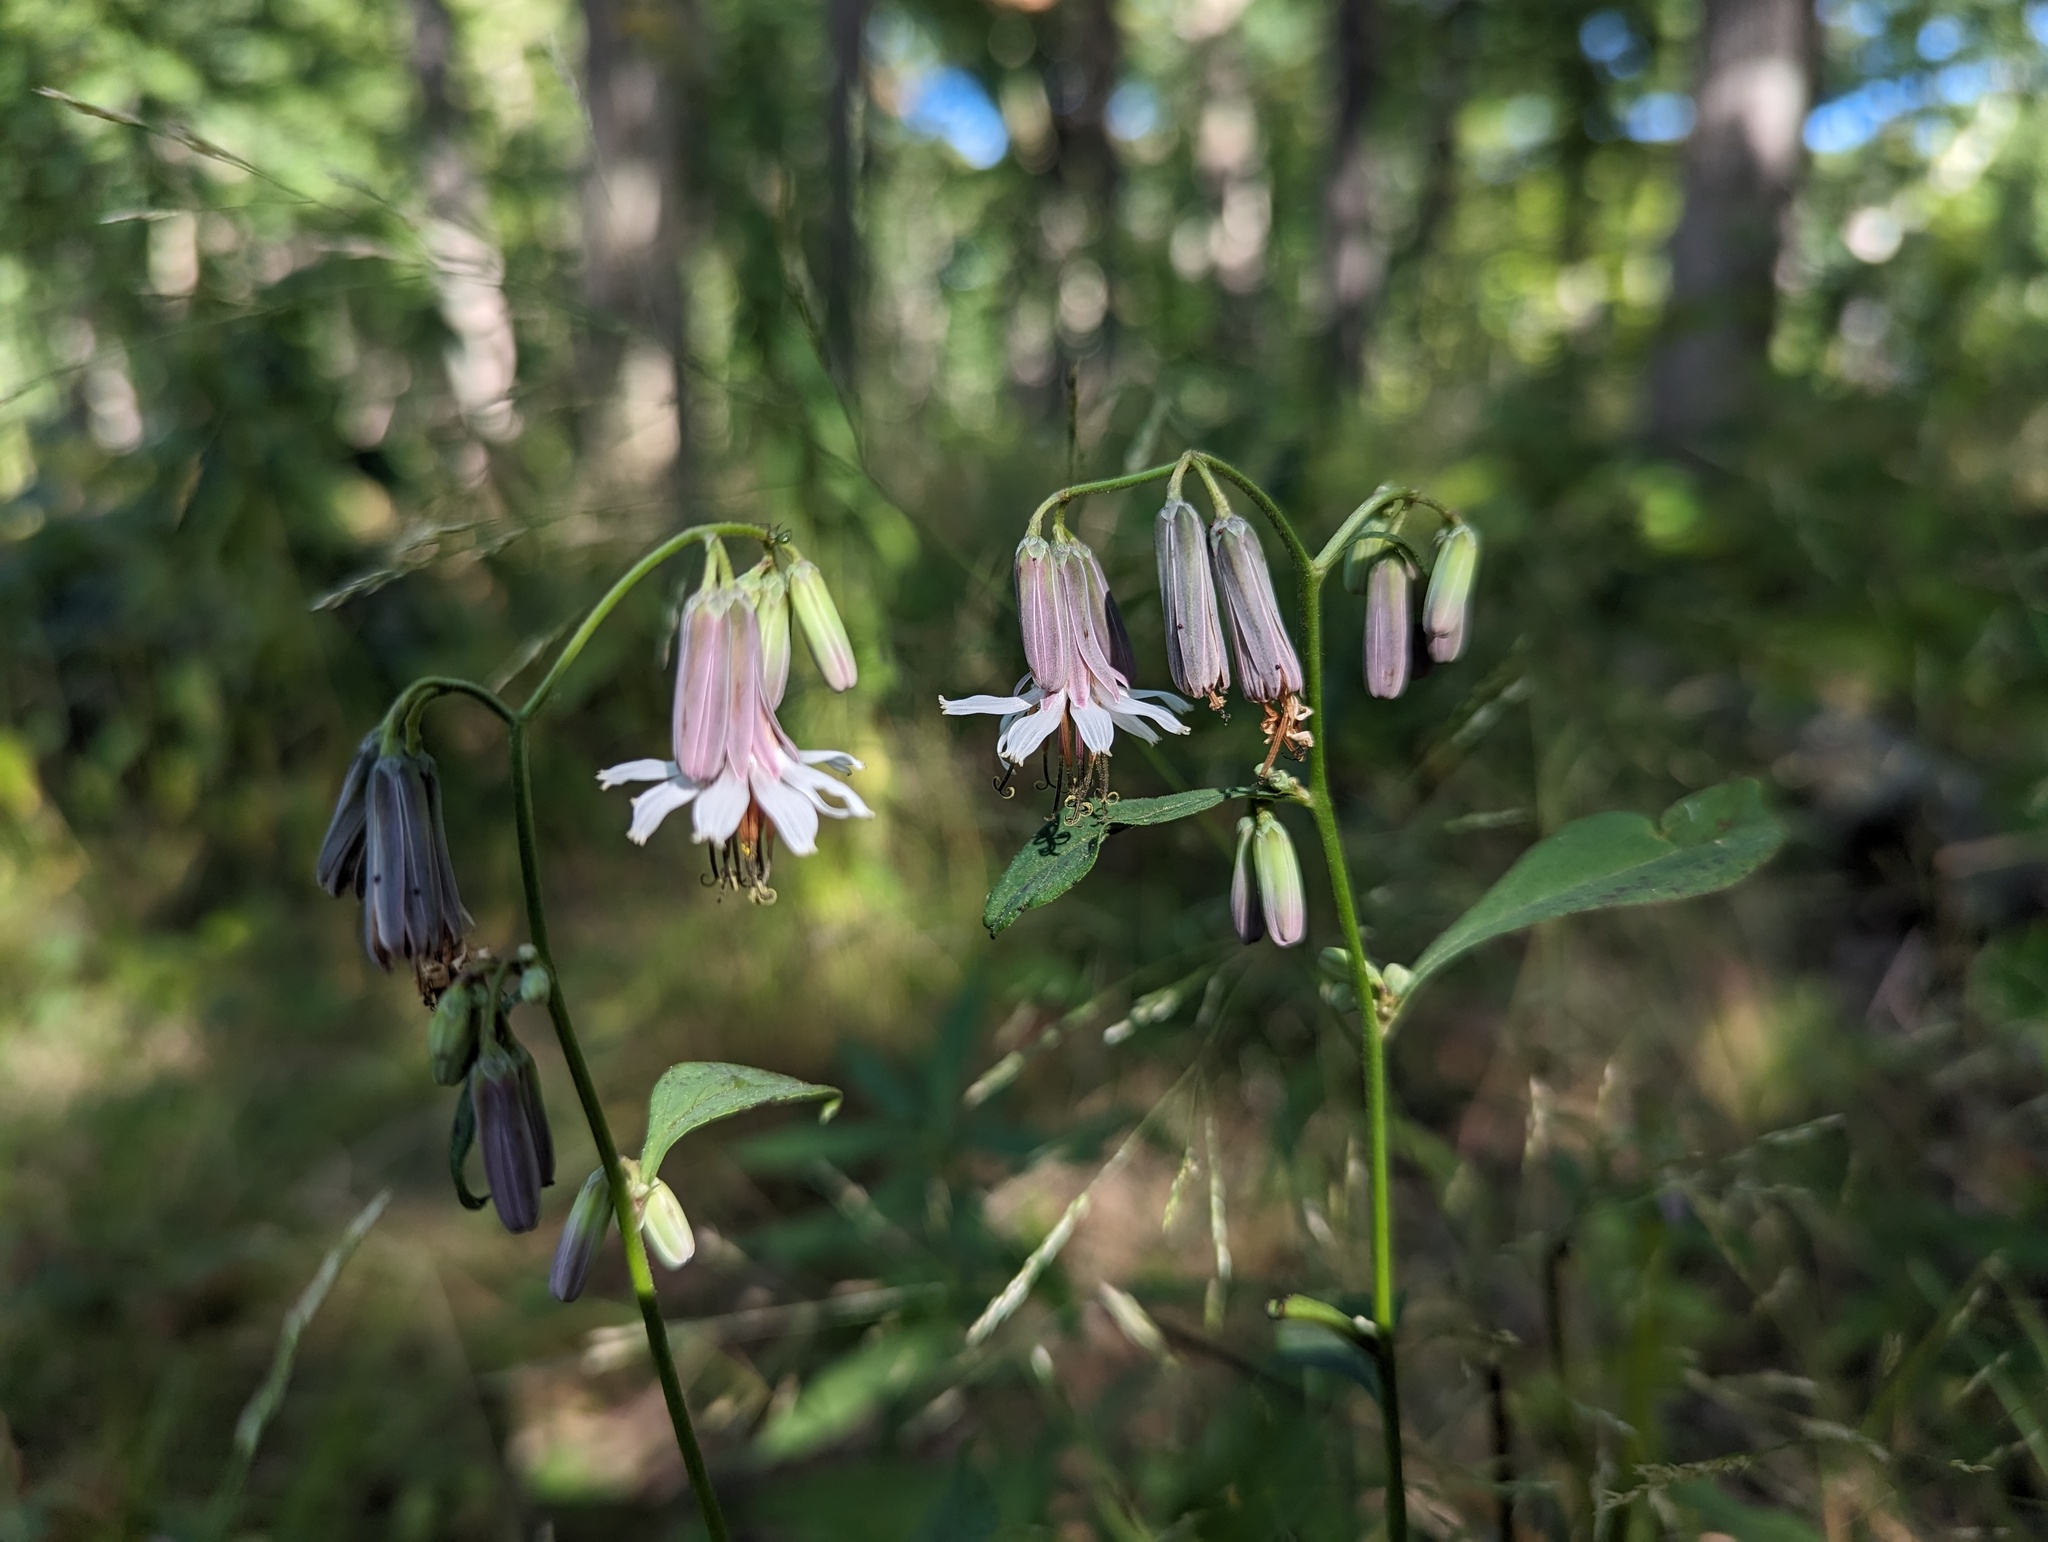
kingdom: Plantae
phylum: Tracheophyta
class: Magnoliopsida
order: Asterales
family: Asteraceae
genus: Nabalus
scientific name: Nabalus albus
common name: White rattlesnakeroot
